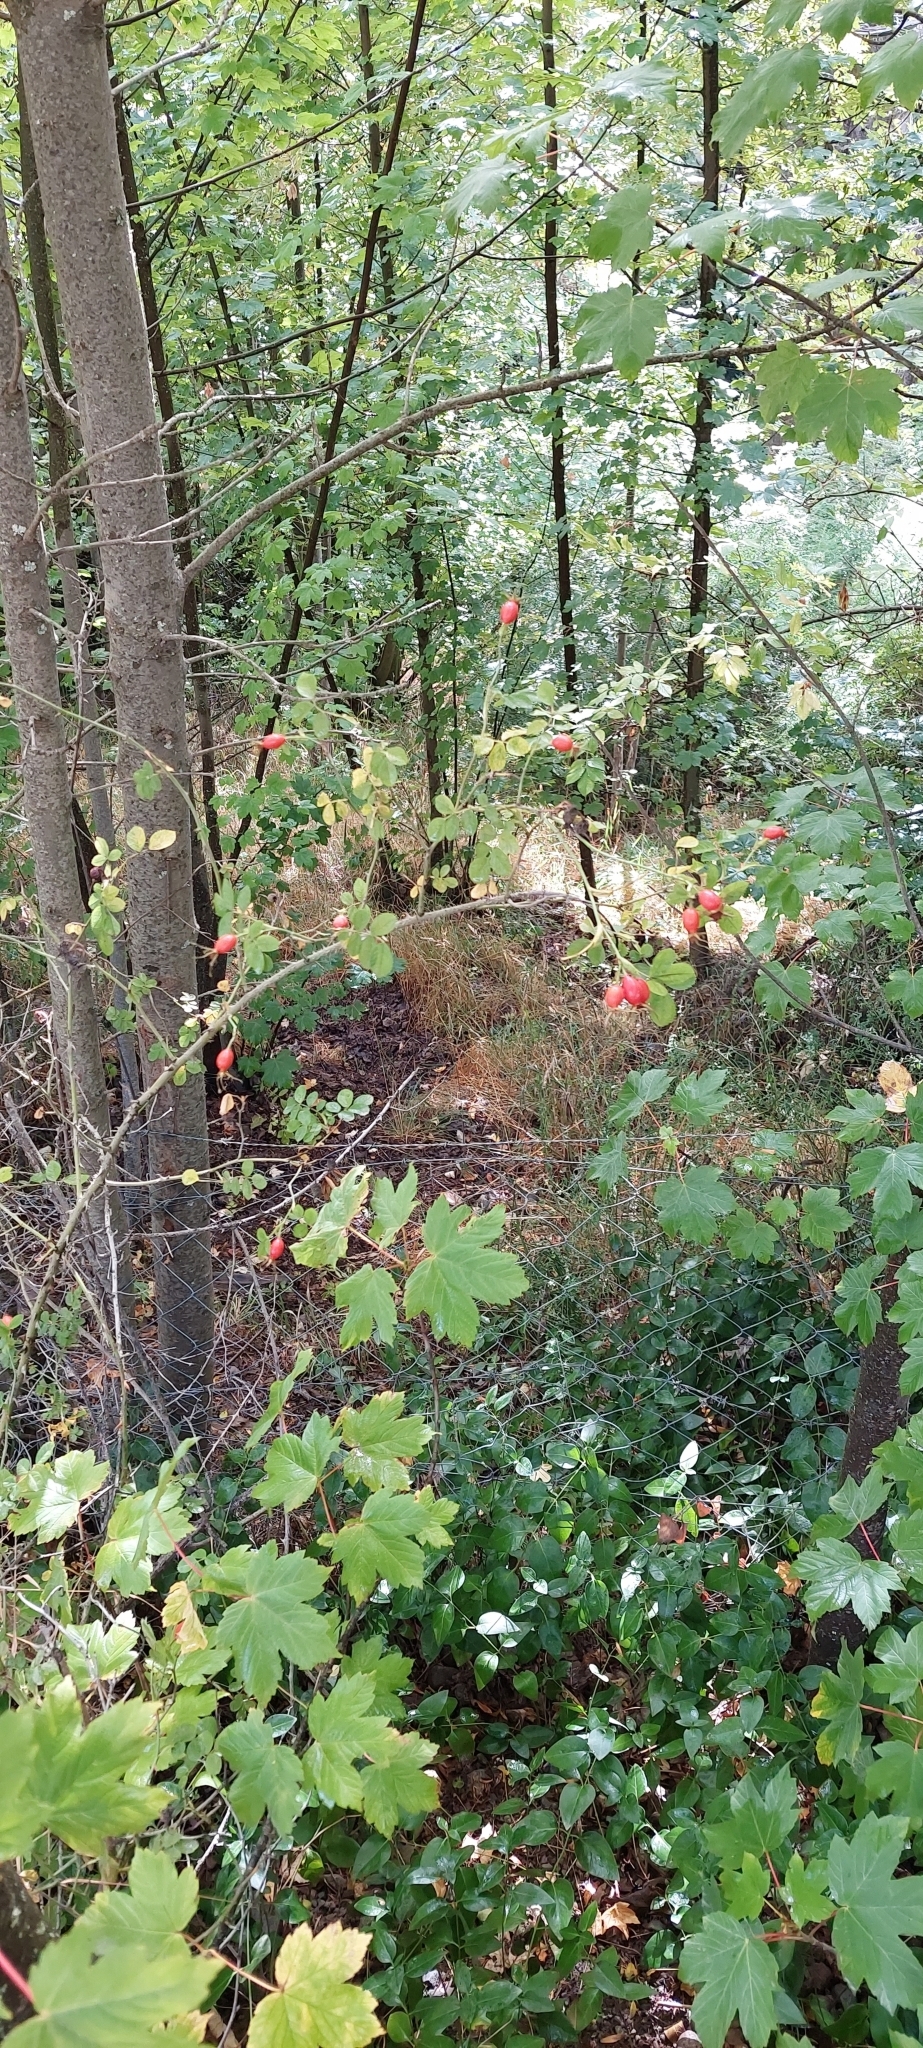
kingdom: Plantae
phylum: Tracheophyta
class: Magnoliopsida
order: Rosales
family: Rosaceae
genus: Rosa
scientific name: Rosa rubiginosa
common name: Sweet-briar
